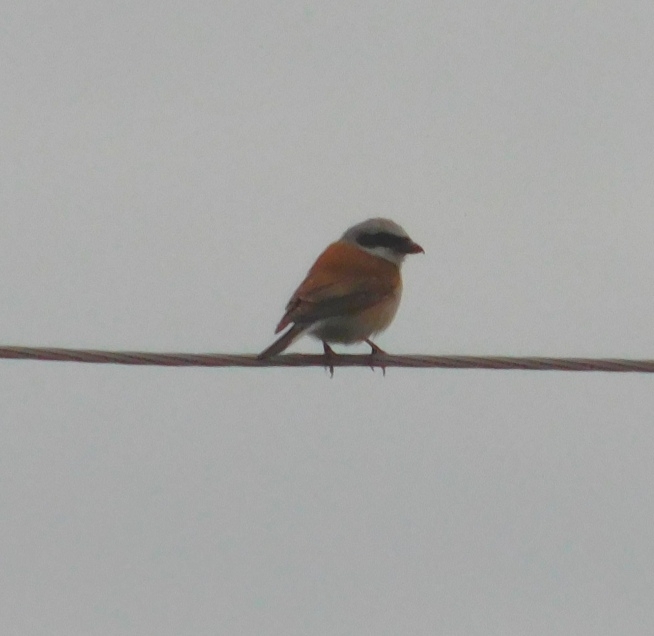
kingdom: Animalia
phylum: Chordata
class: Aves
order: Passeriformes
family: Laniidae
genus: Lanius
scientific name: Lanius collurio
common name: Red-backed shrike
